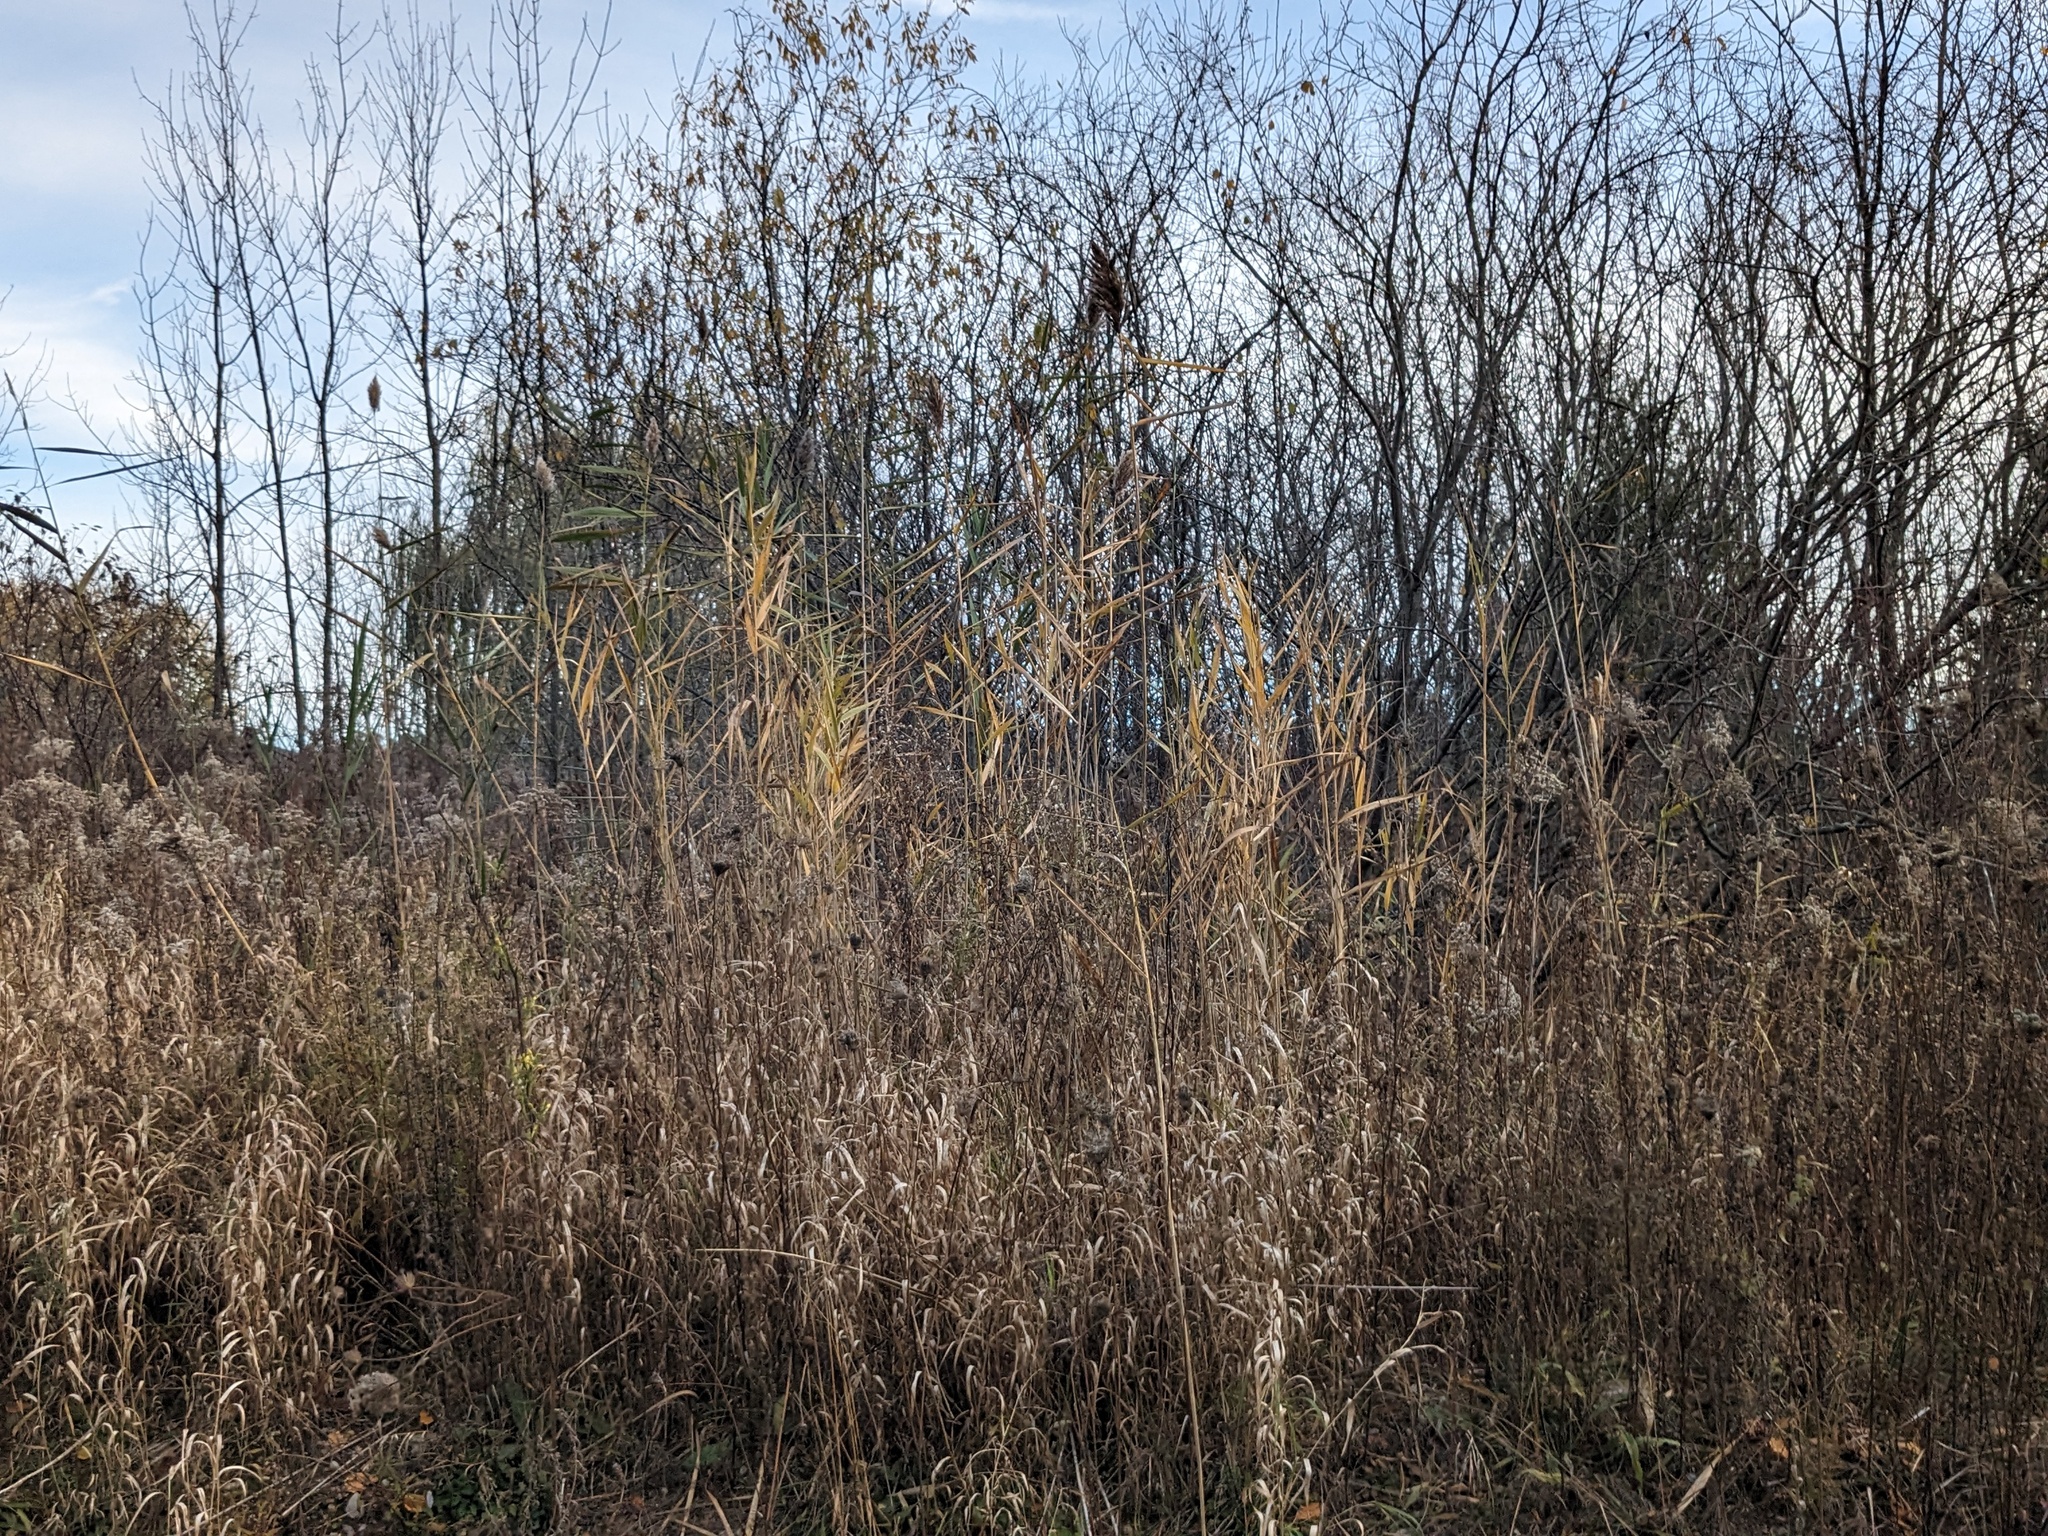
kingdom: Plantae
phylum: Tracheophyta
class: Liliopsida
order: Poales
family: Poaceae
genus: Phragmites
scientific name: Phragmites australis
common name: Common reed
